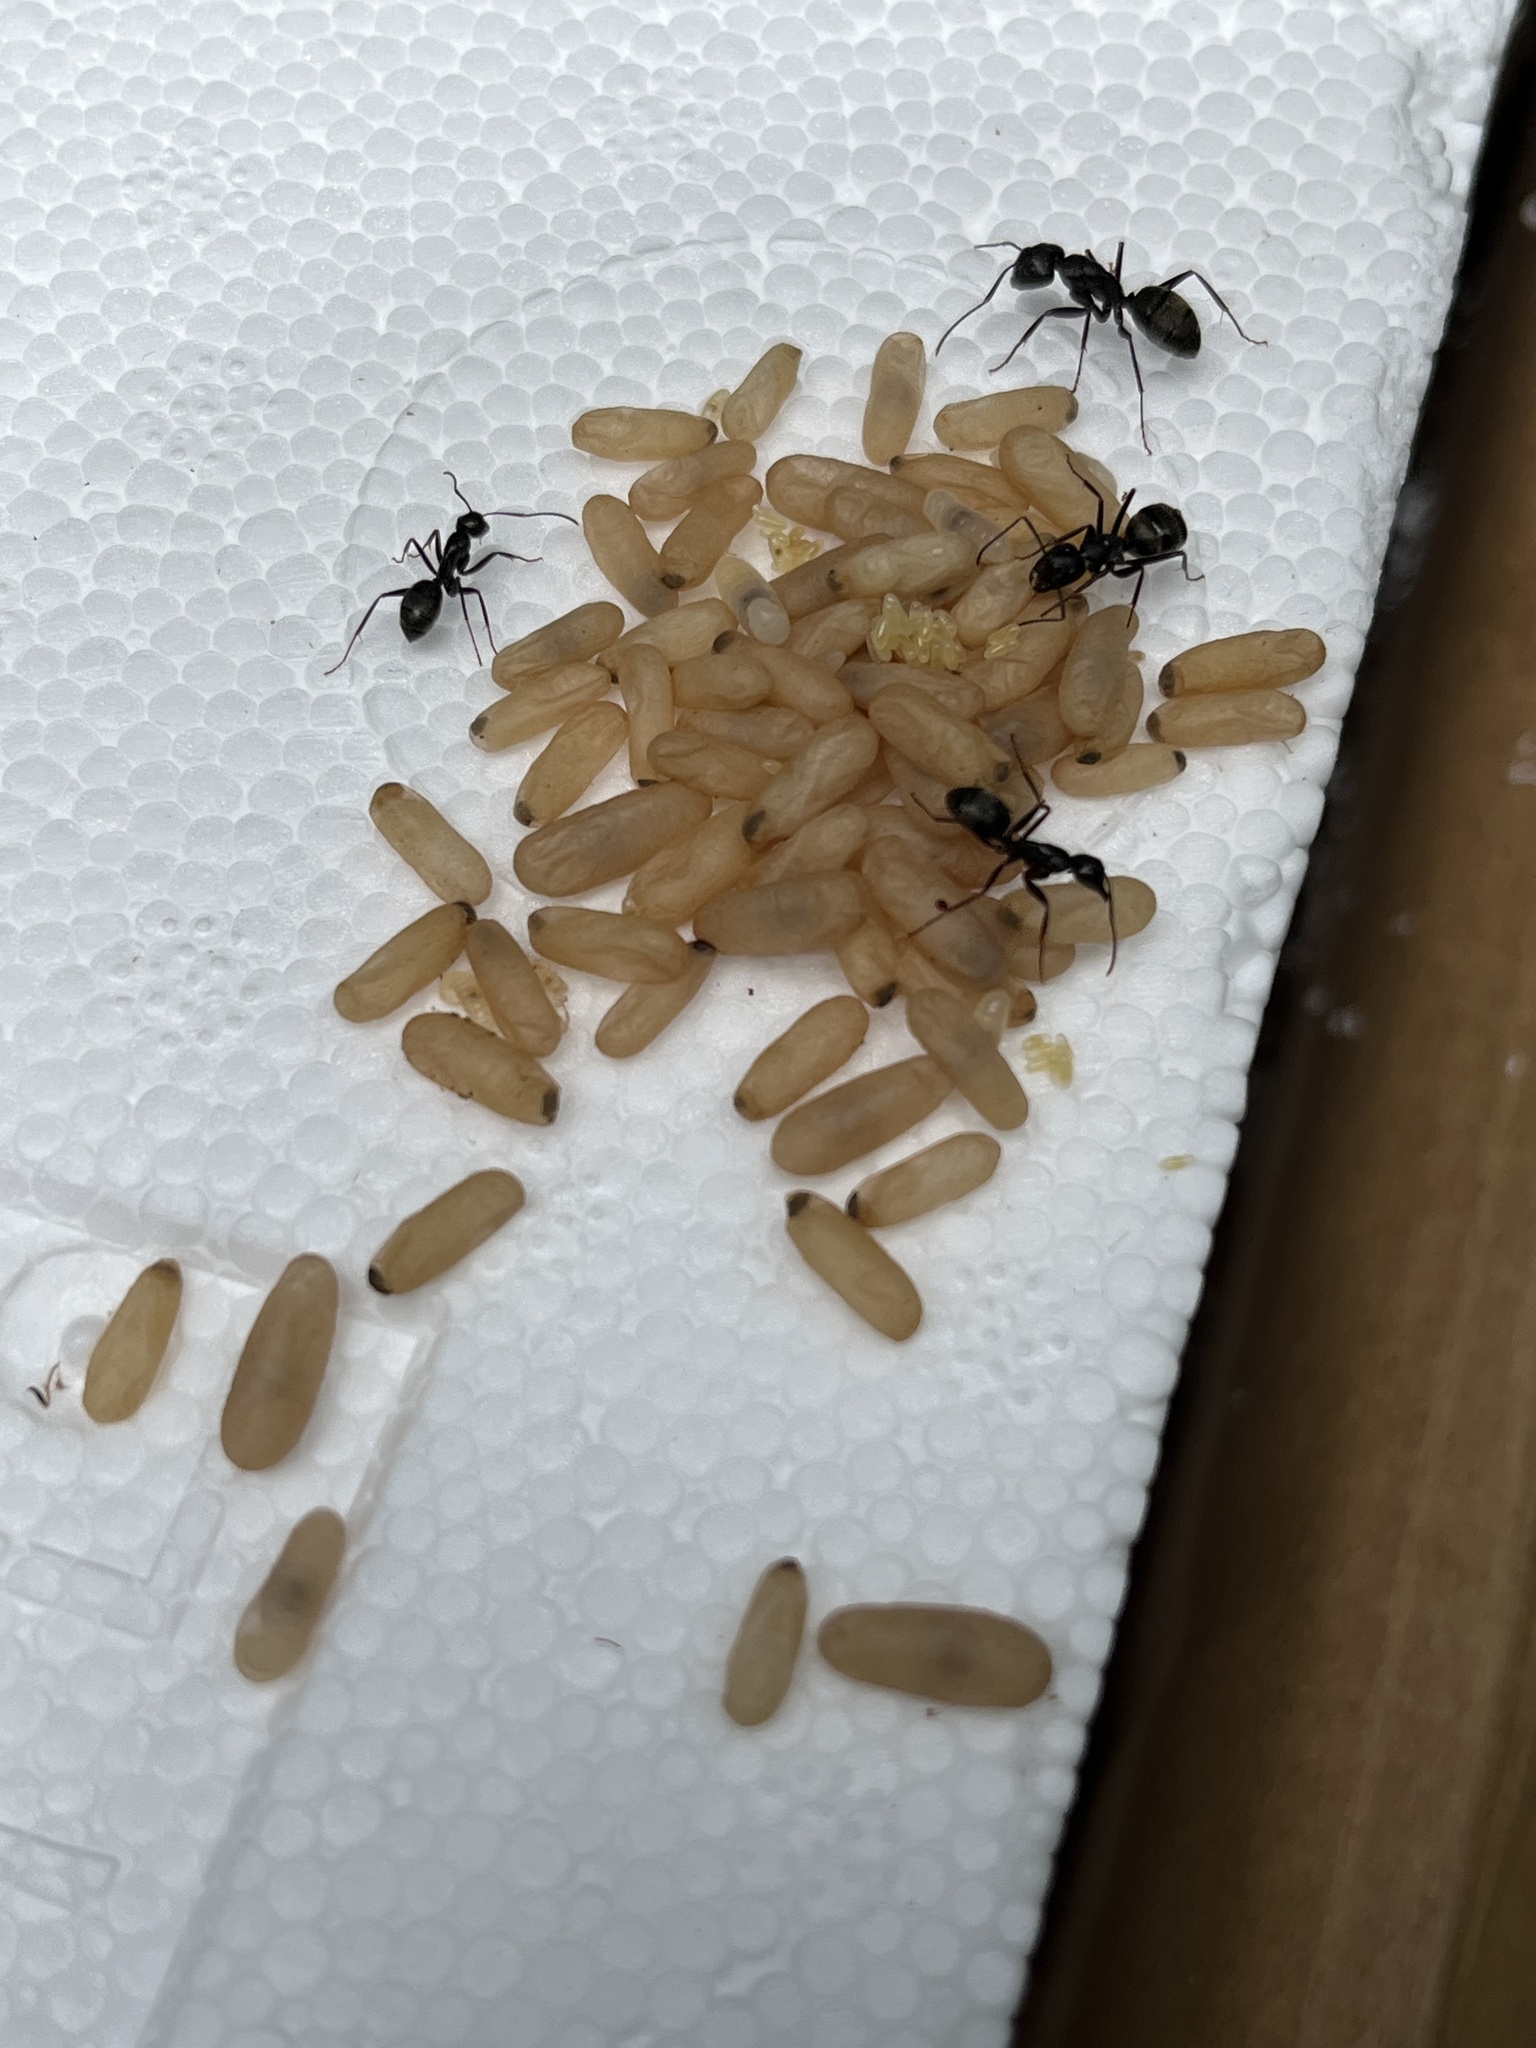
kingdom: Animalia
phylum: Arthropoda
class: Insecta
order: Hymenoptera
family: Formicidae
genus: Camponotus
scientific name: Camponotus pennsylvanicus
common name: Black carpenter ant
